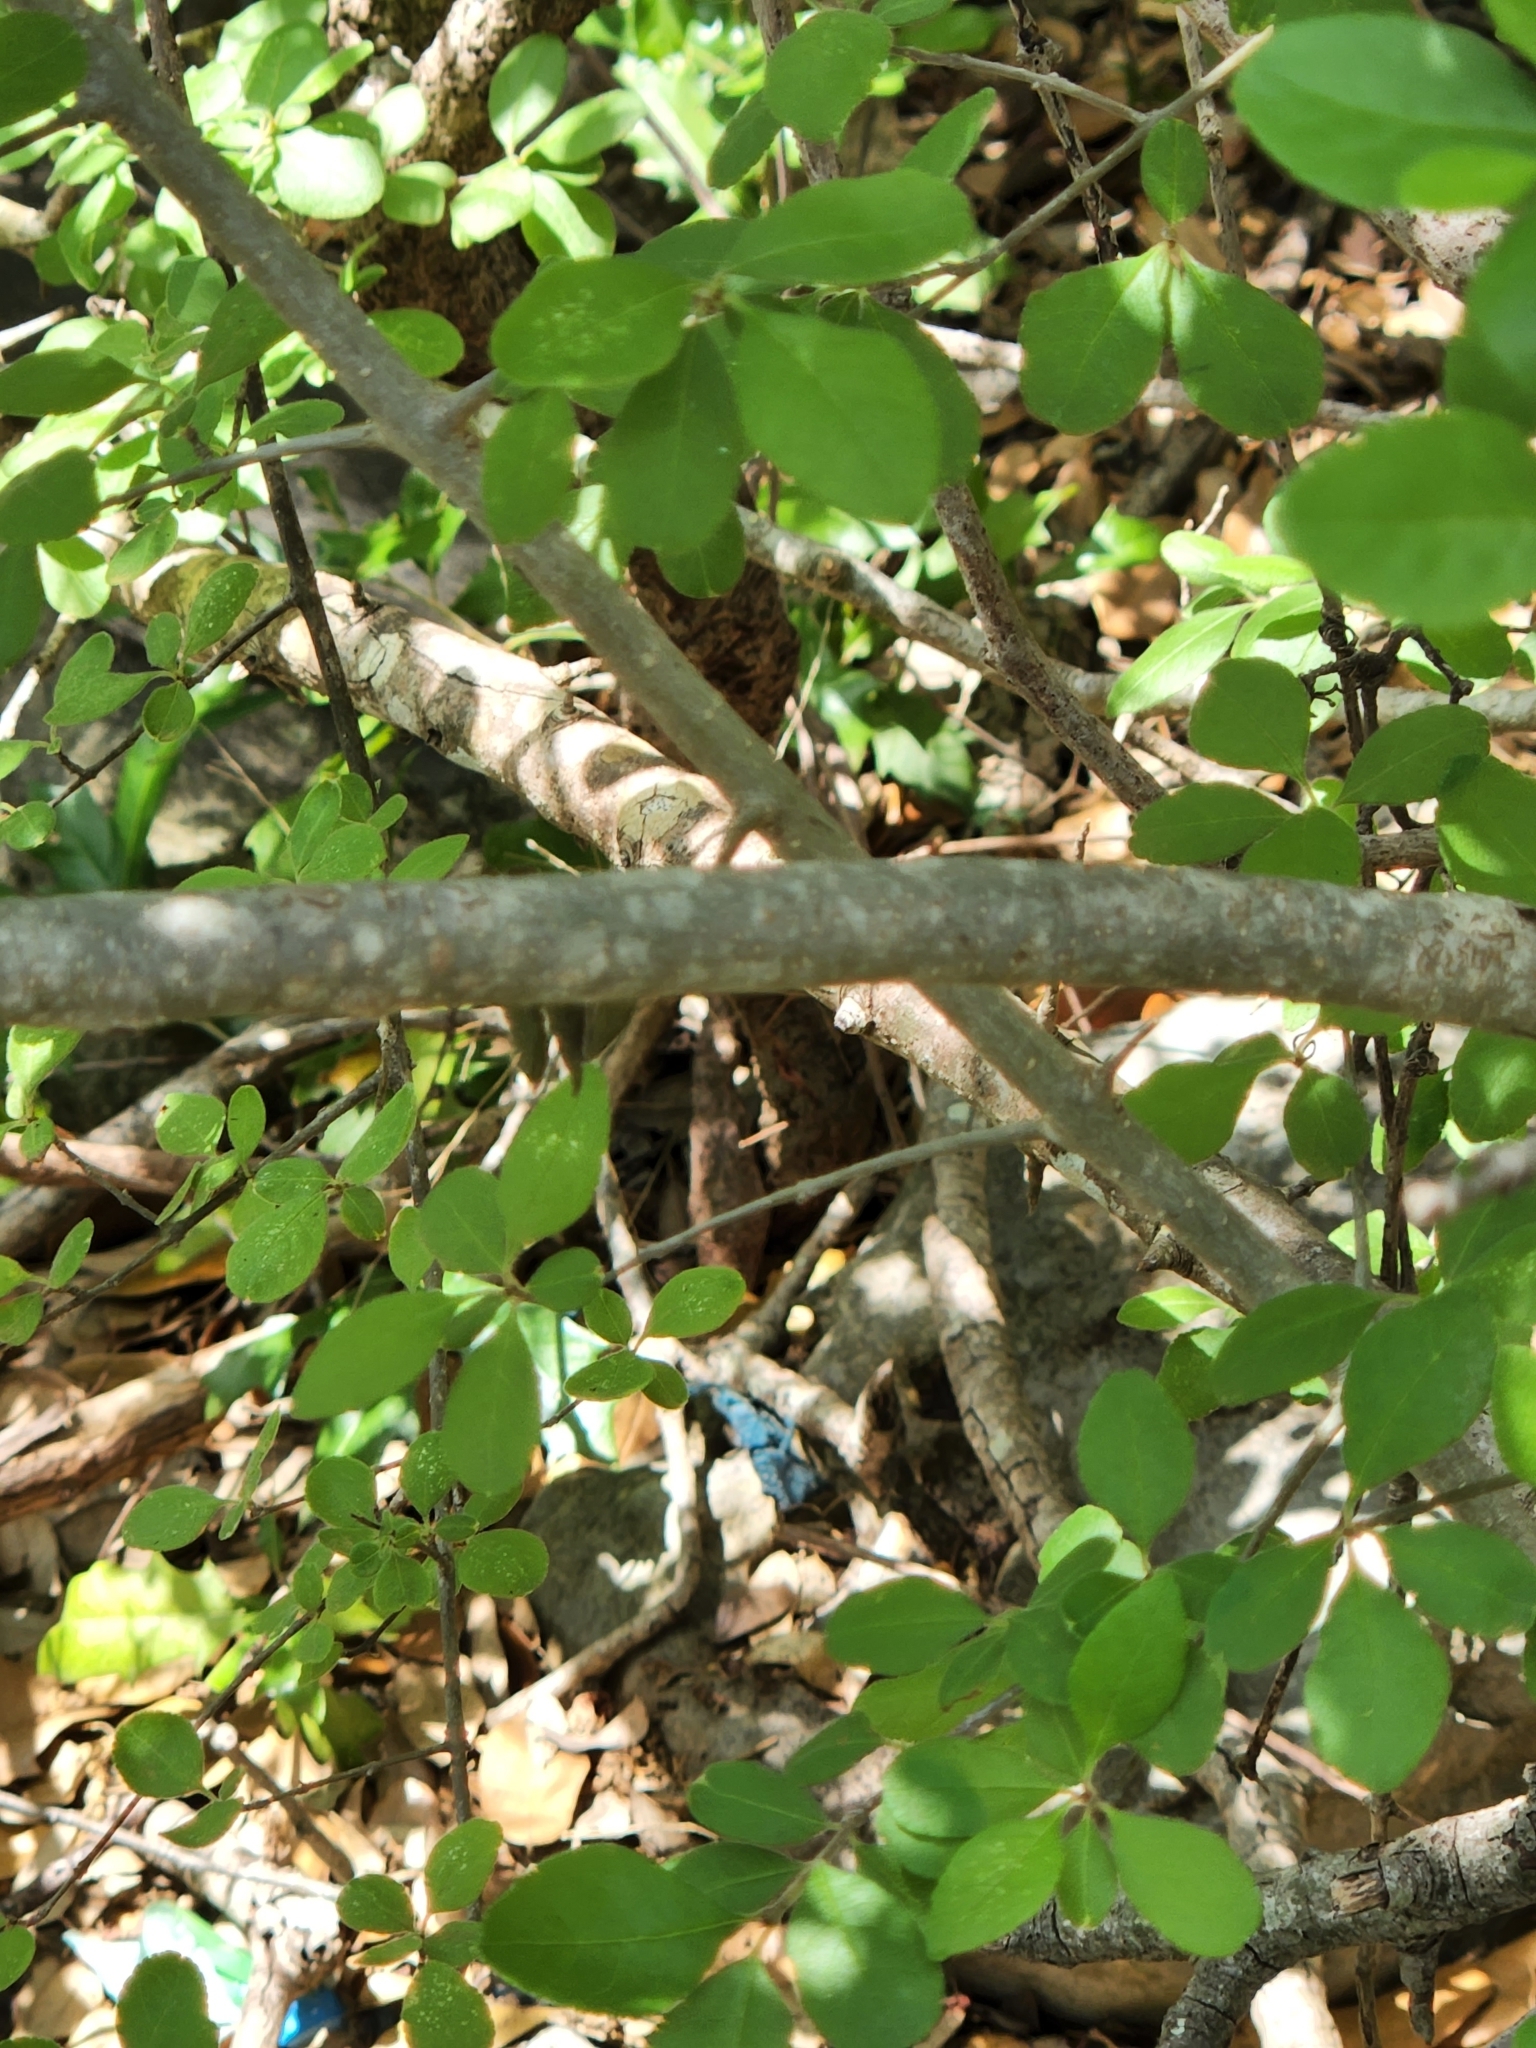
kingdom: Plantae
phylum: Tracheophyta
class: Magnoliopsida
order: Lamiales
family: Oleaceae
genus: Forestiera
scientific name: Forestiera pubescens
